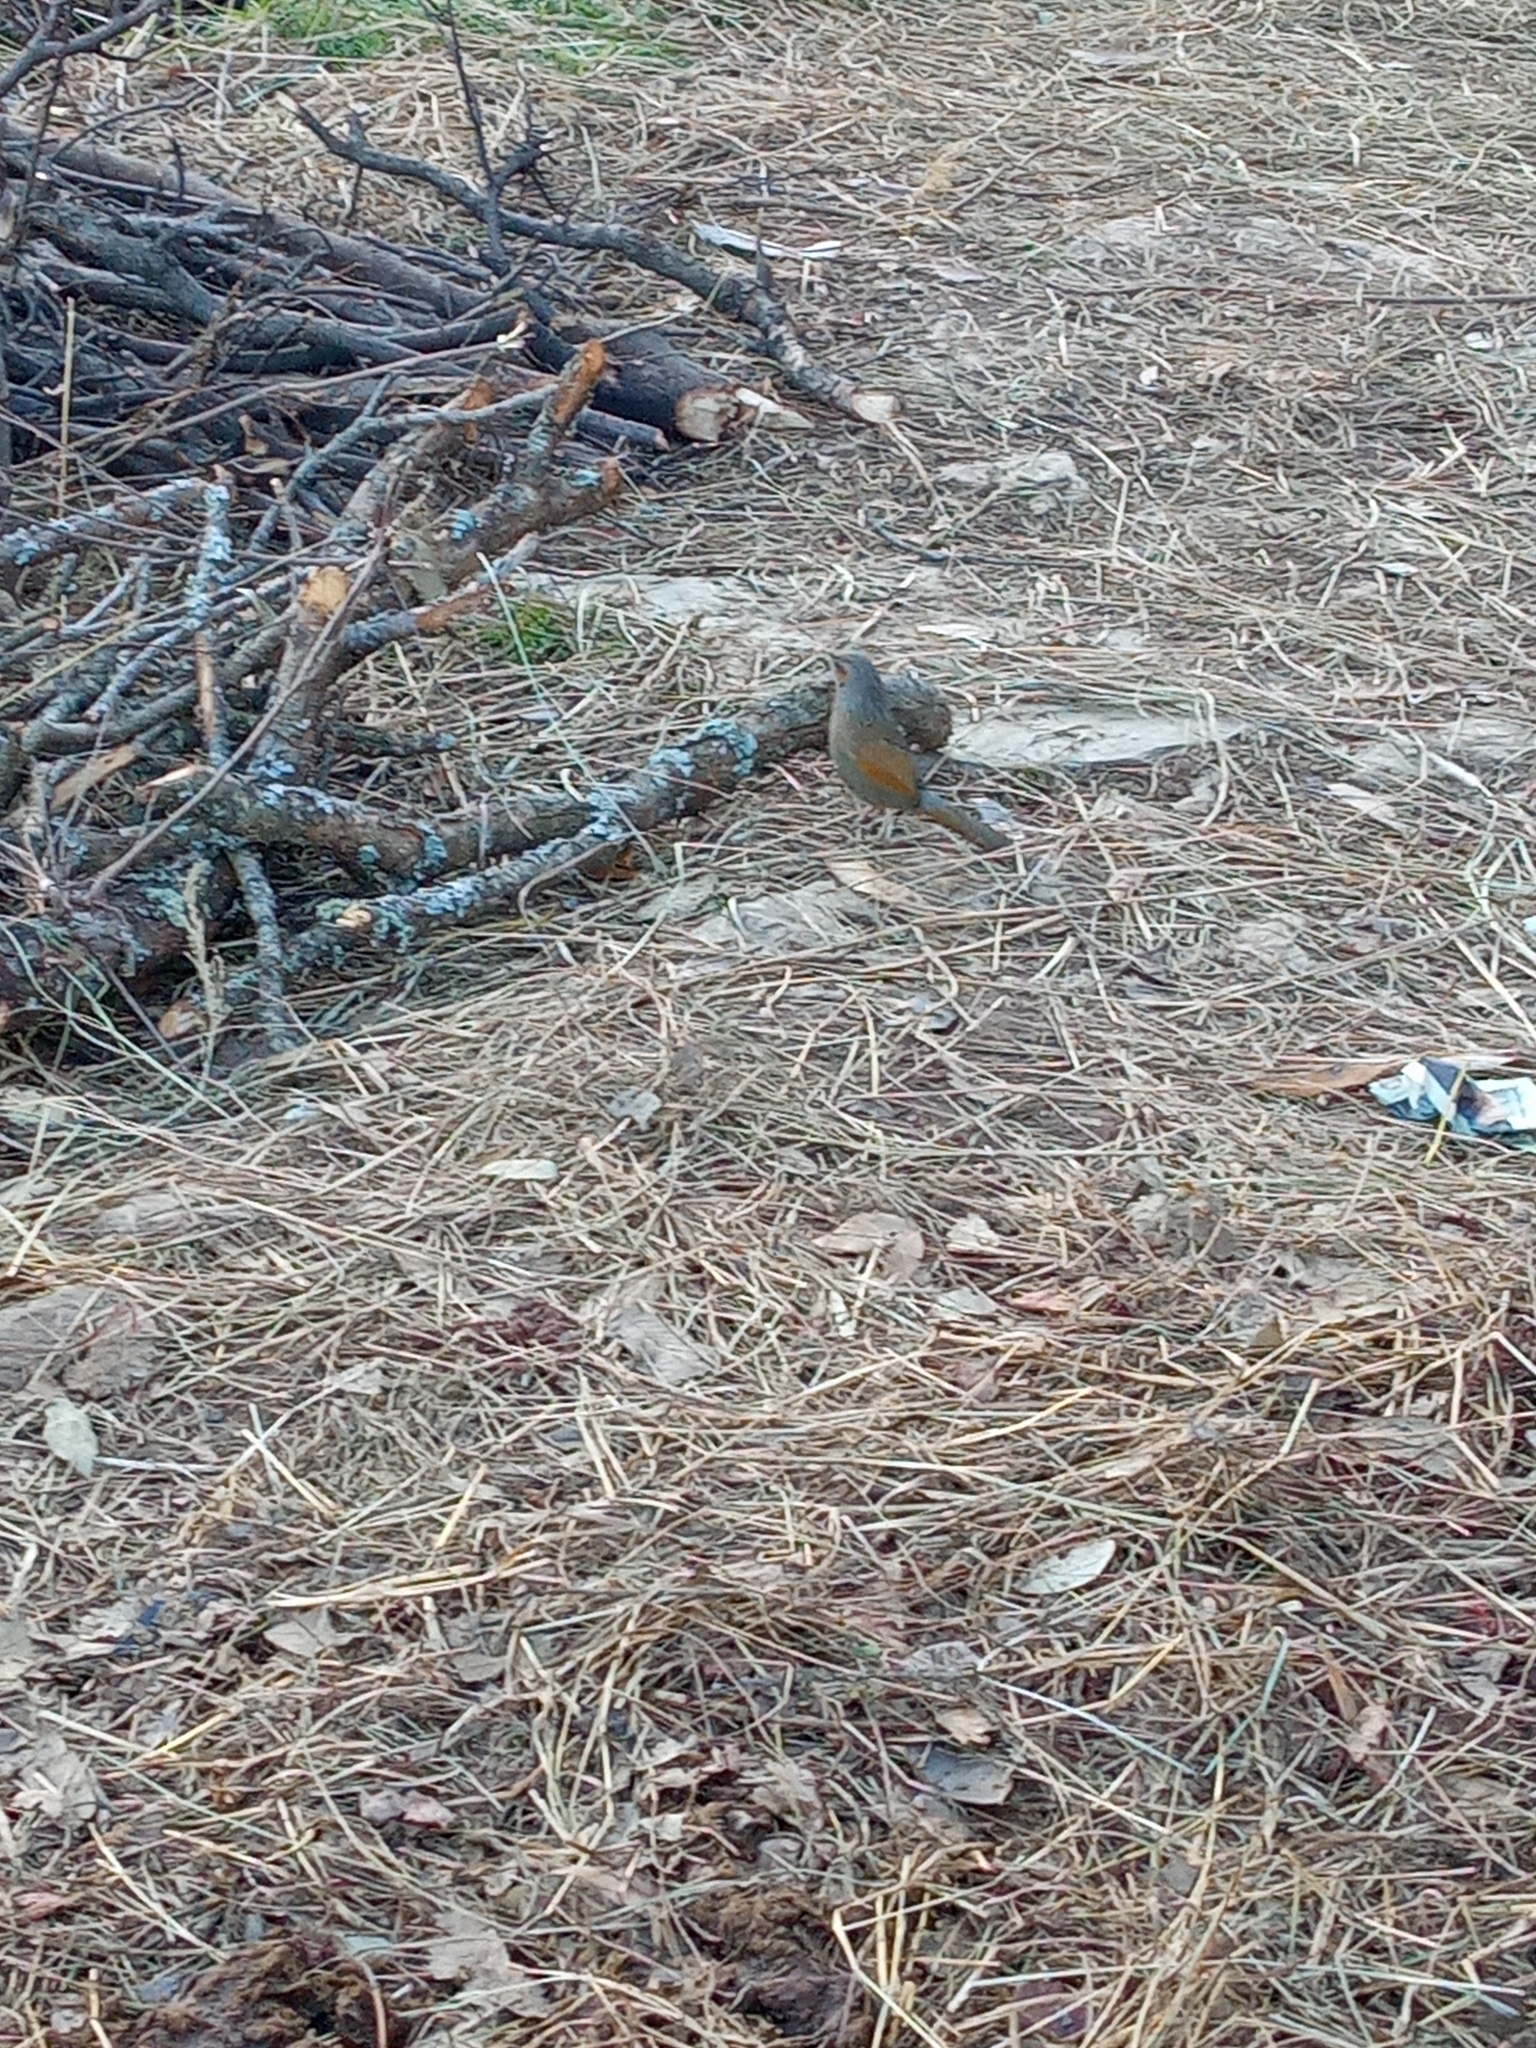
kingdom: Animalia
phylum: Chordata
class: Aves
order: Passeriformes
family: Leiothrichidae
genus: Trochalopteron
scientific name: Trochalopteron lineatum
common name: Streaked laughingthrush
